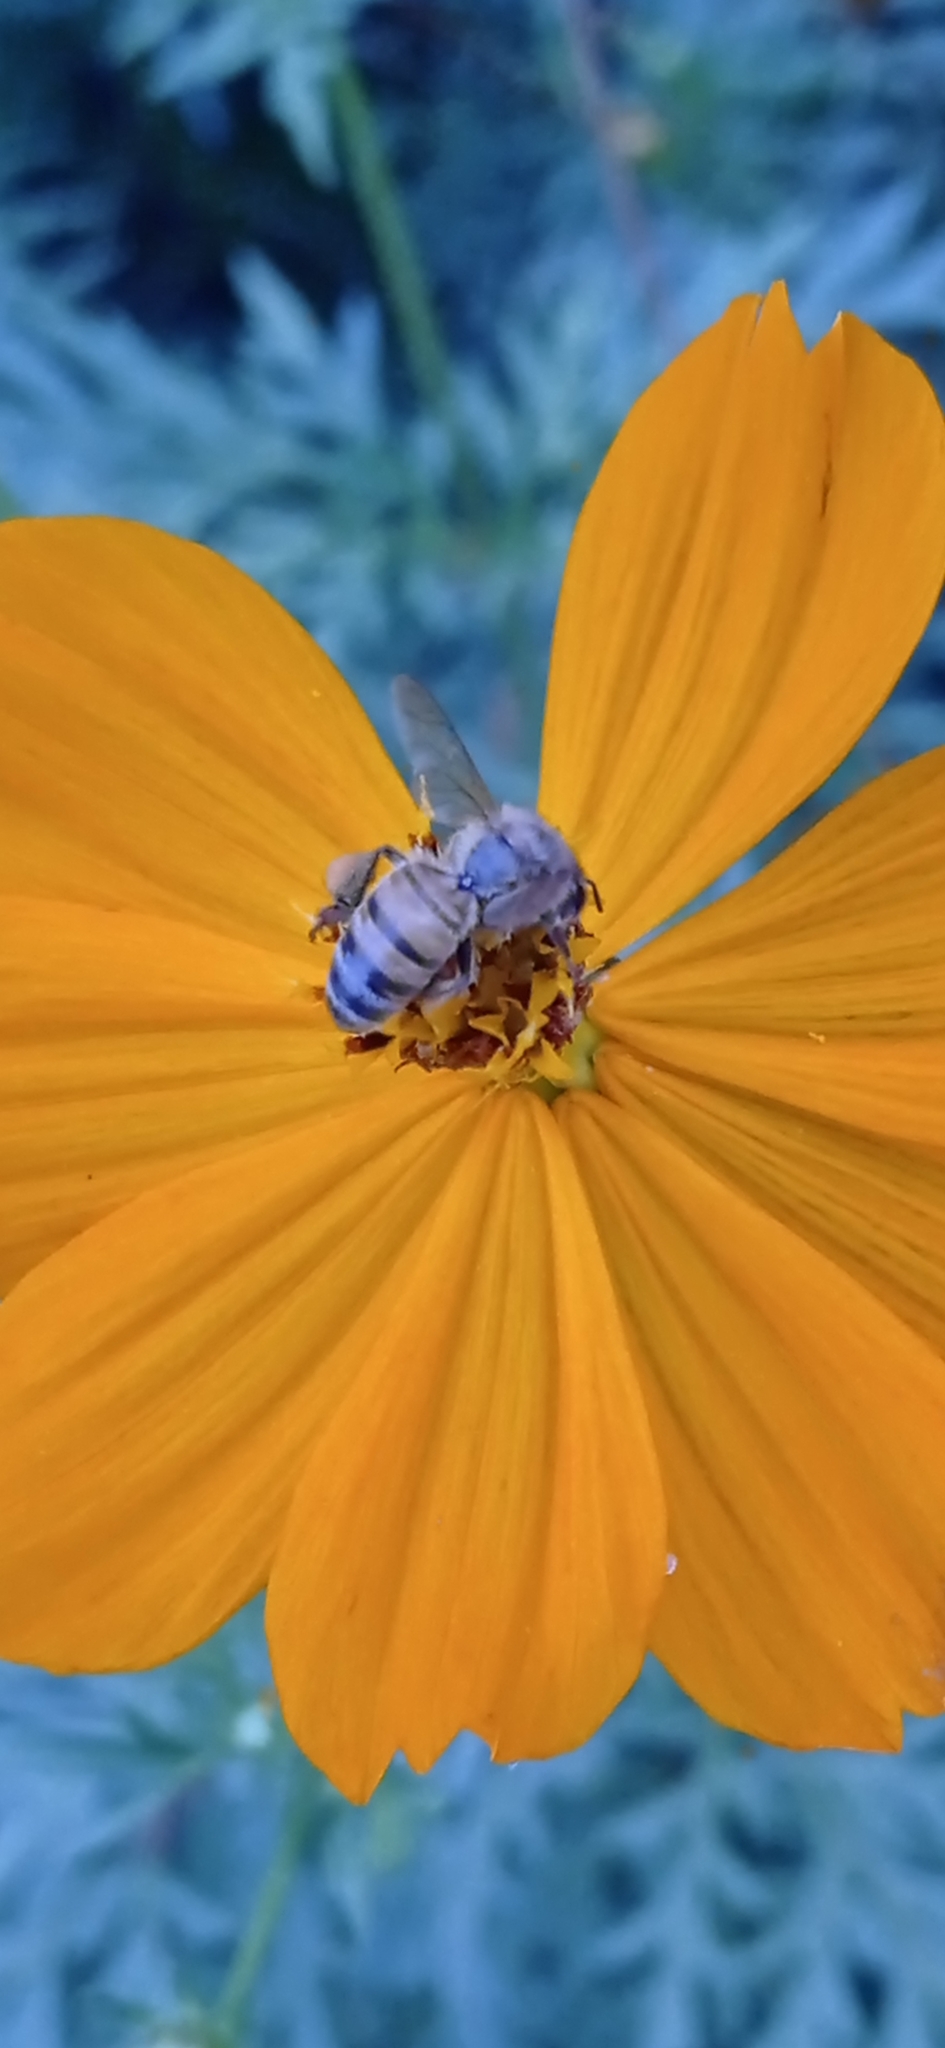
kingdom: Animalia
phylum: Arthropoda
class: Insecta
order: Hymenoptera
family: Apidae
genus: Apis
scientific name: Apis mellifera
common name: Honey bee
